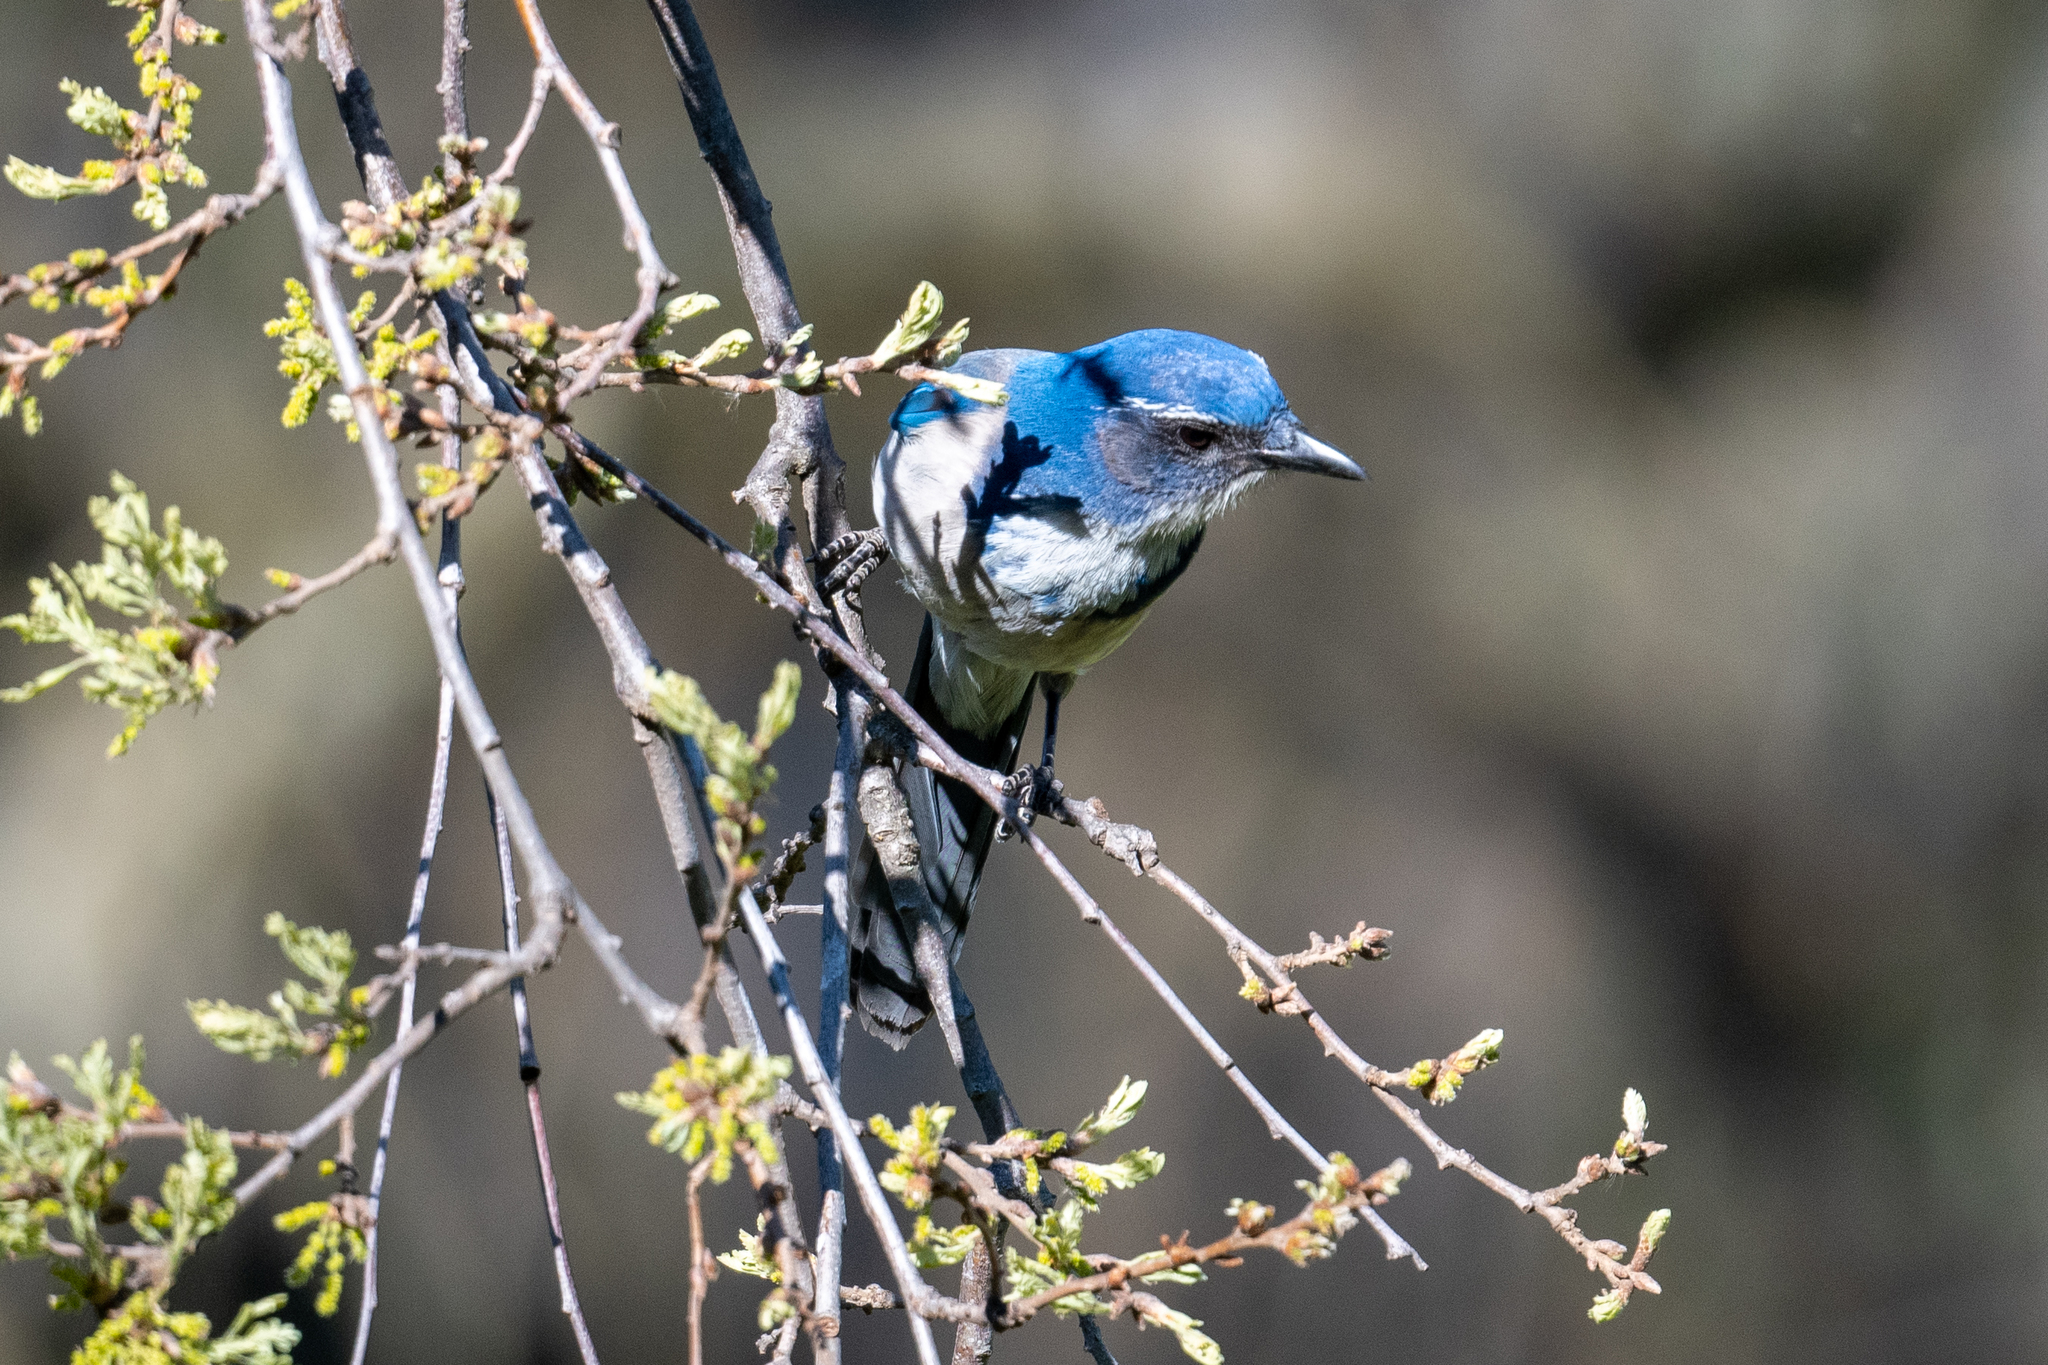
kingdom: Animalia
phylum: Chordata
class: Aves
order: Passeriformes
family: Corvidae
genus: Aphelocoma
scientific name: Aphelocoma californica
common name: California scrub-jay
